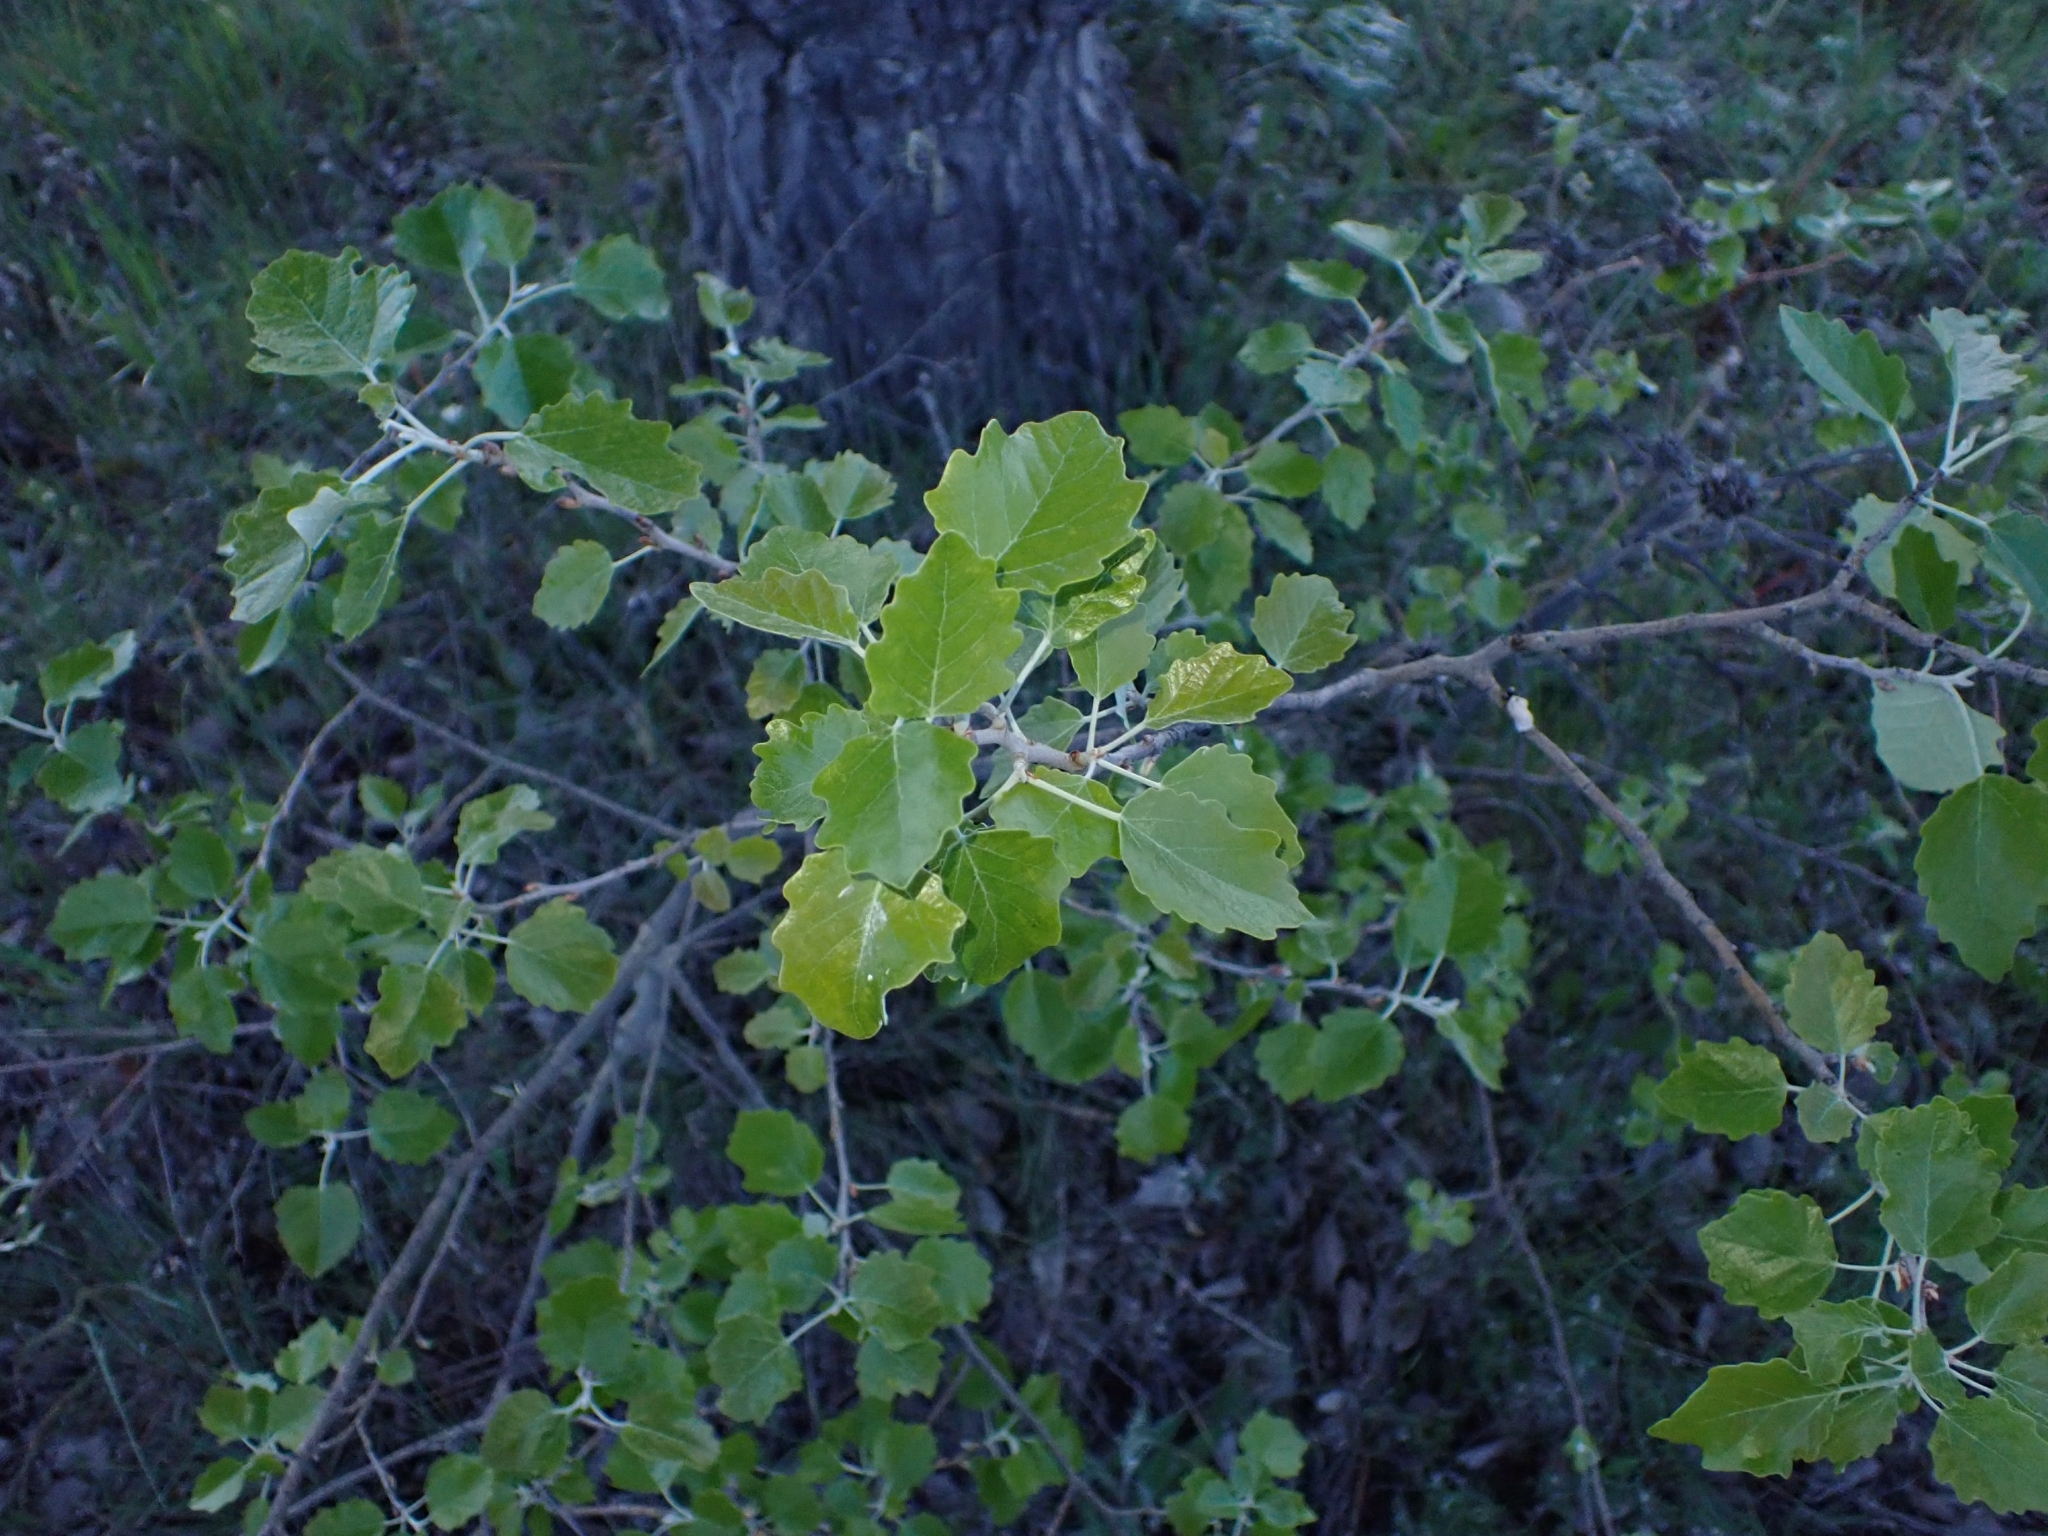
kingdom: Plantae
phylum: Tracheophyta
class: Magnoliopsida
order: Malpighiales
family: Salicaceae
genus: Populus
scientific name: Populus alba
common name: White poplar
